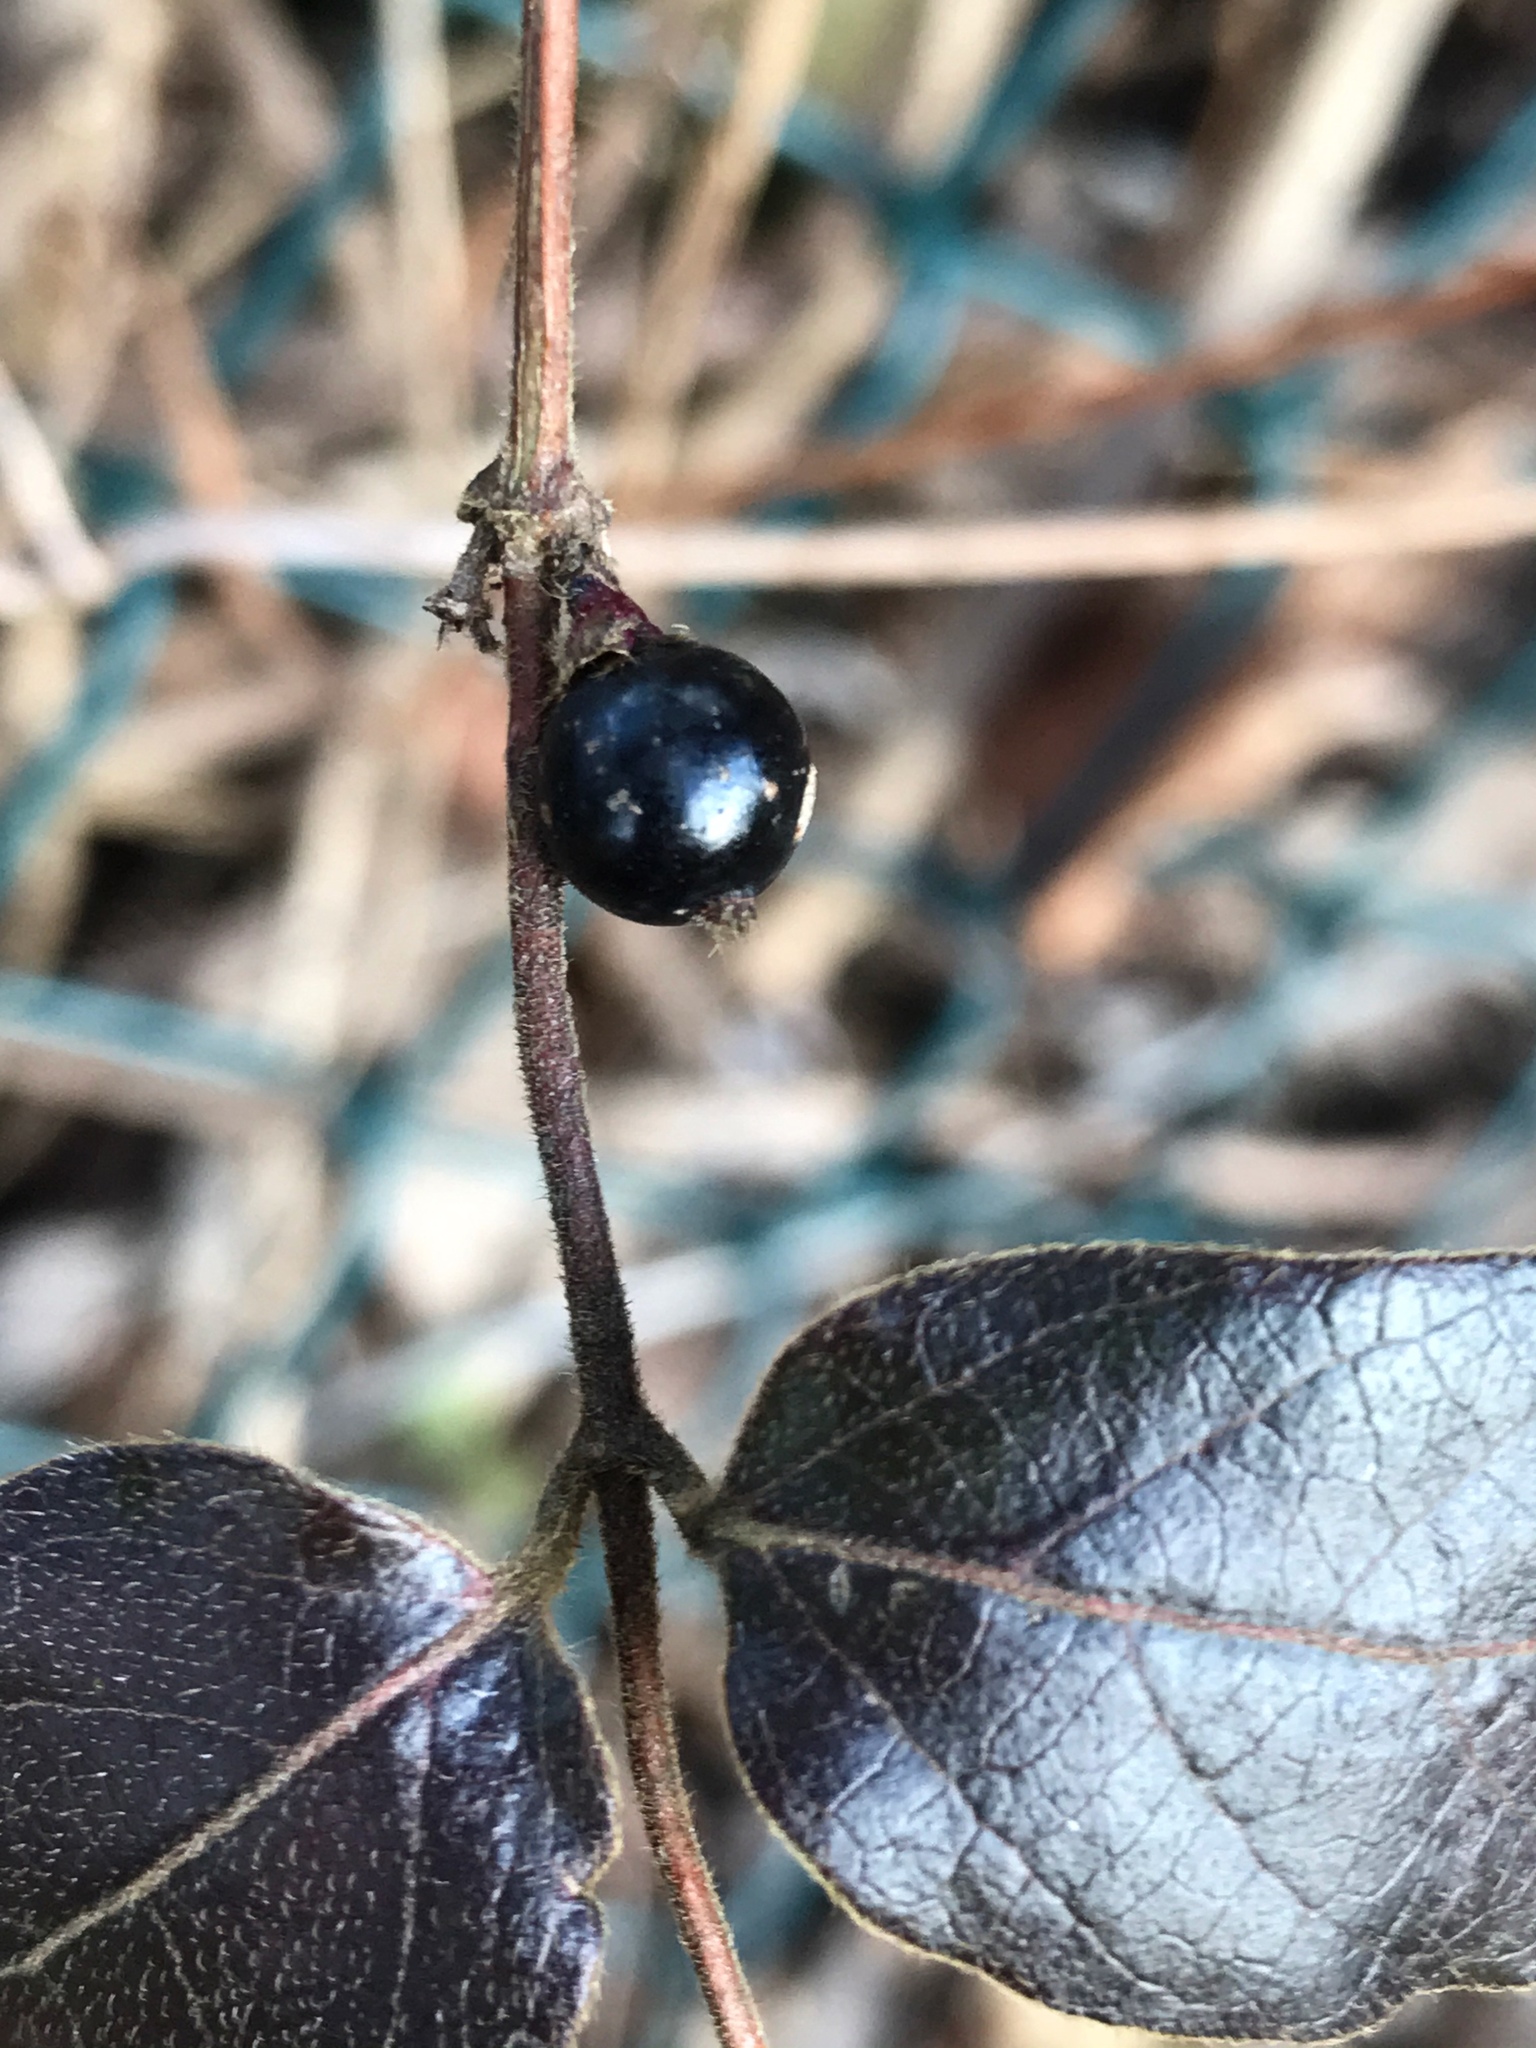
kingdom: Plantae
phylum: Tracheophyta
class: Magnoliopsida
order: Dipsacales
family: Caprifoliaceae
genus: Lonicera
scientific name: Lonicera japonica
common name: Japanese honeysuckle
